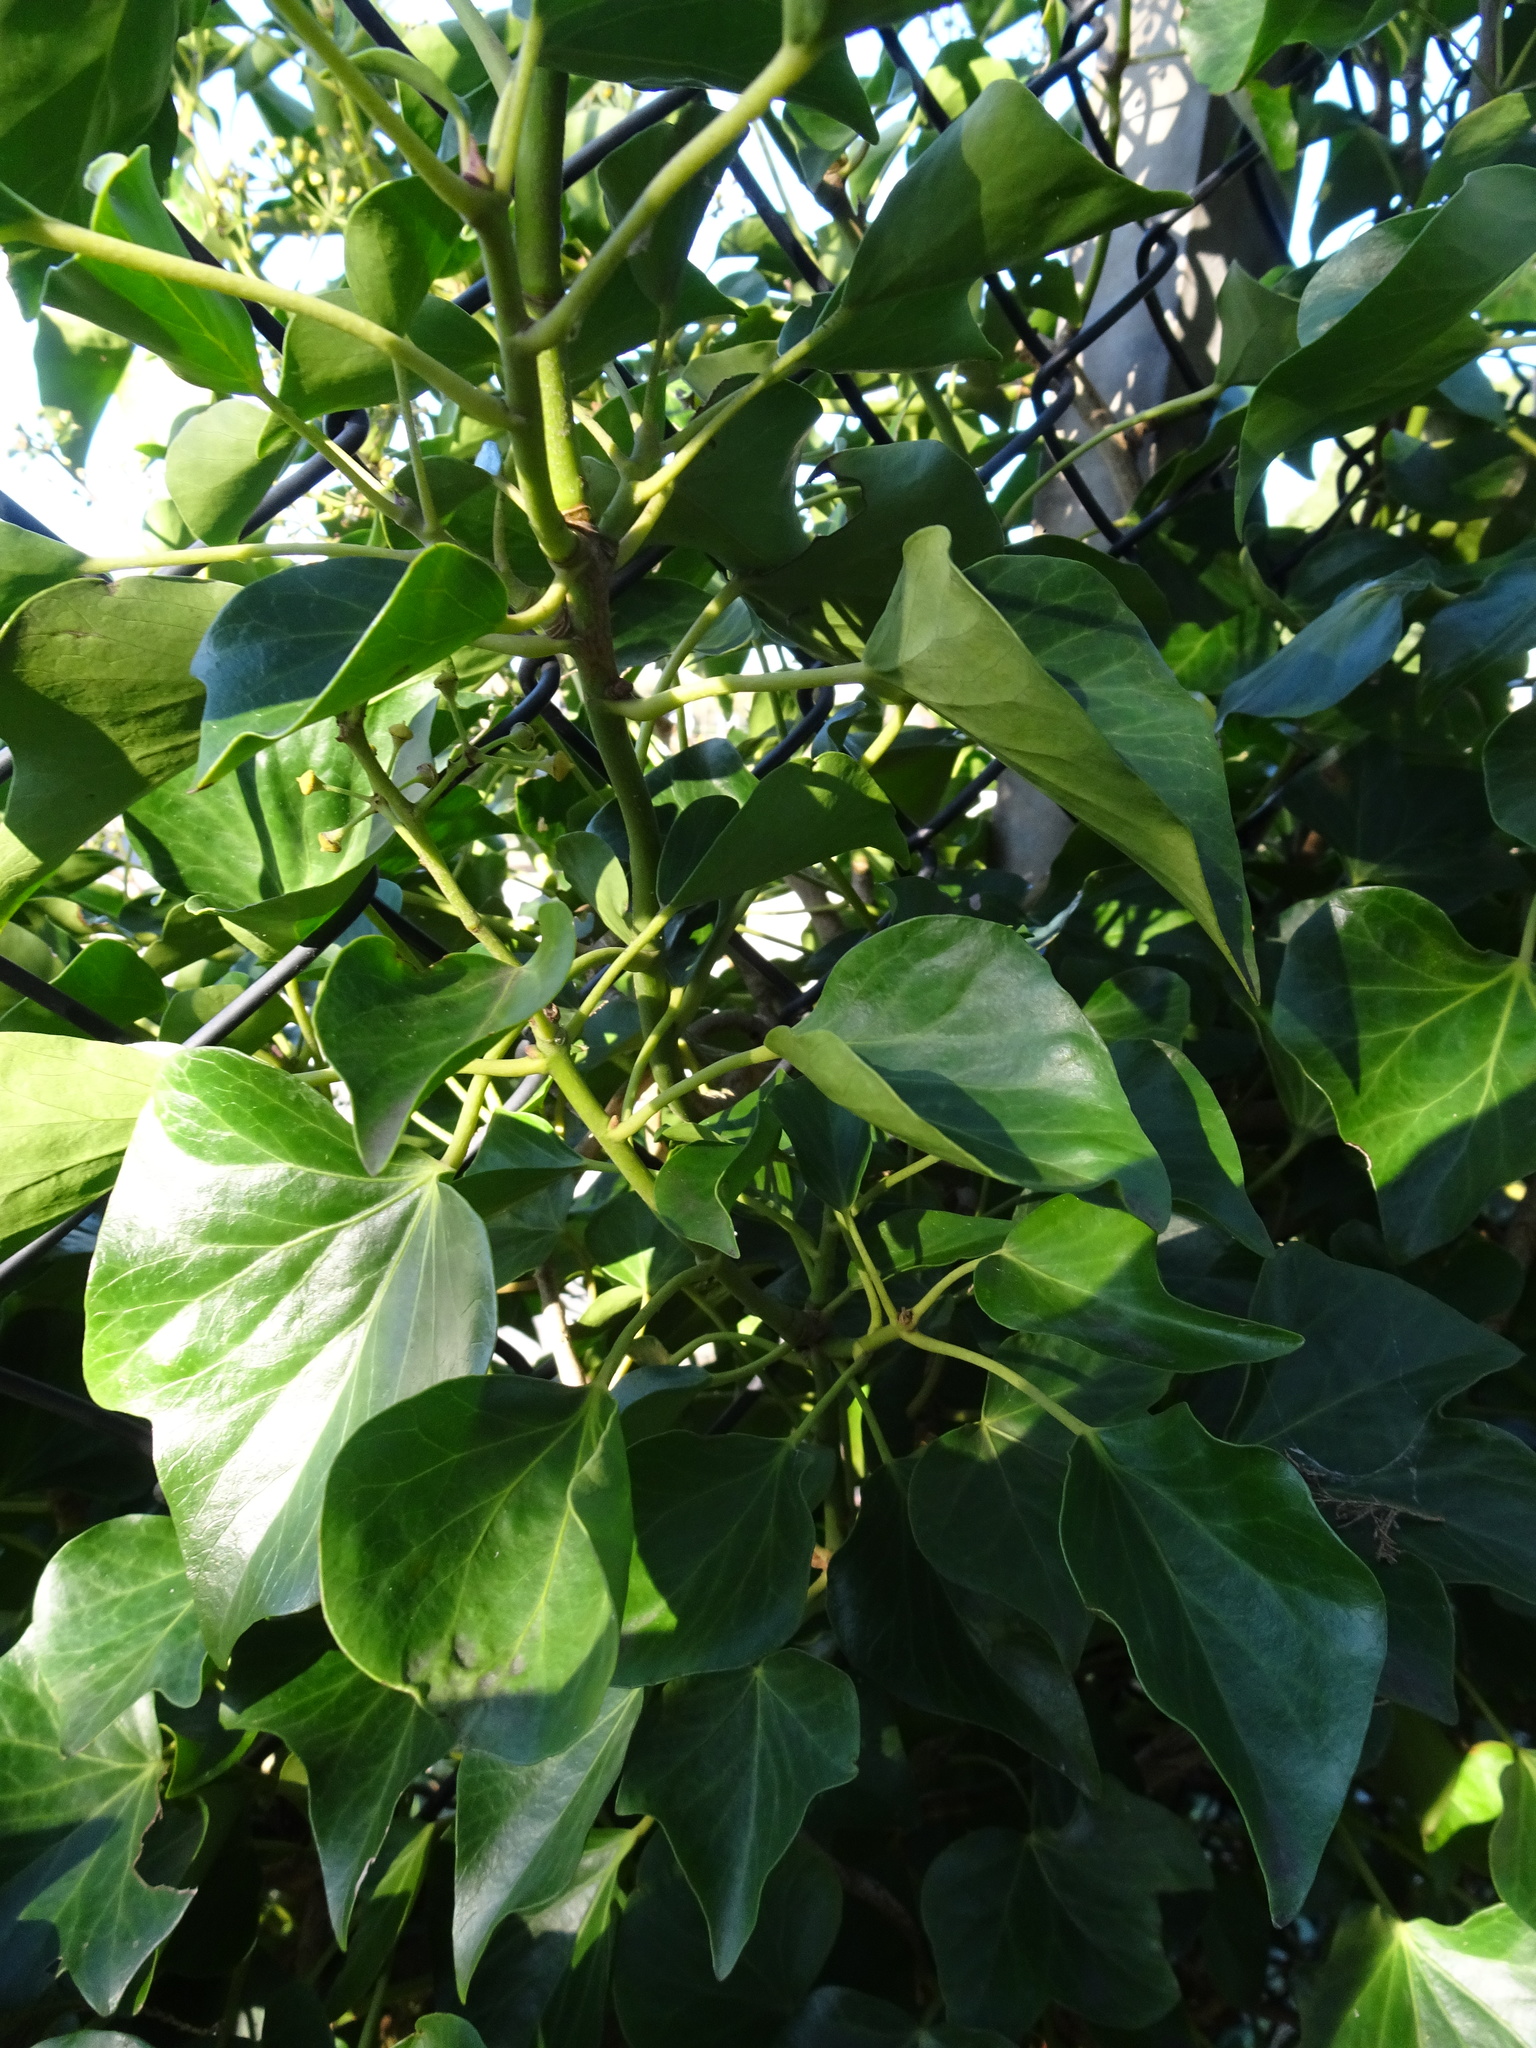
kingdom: Plantae
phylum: Tracheophyta
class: Magnoliopsida
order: Apiales
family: Araliaceae
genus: Hedera
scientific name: Hedera helix
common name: Ivy
